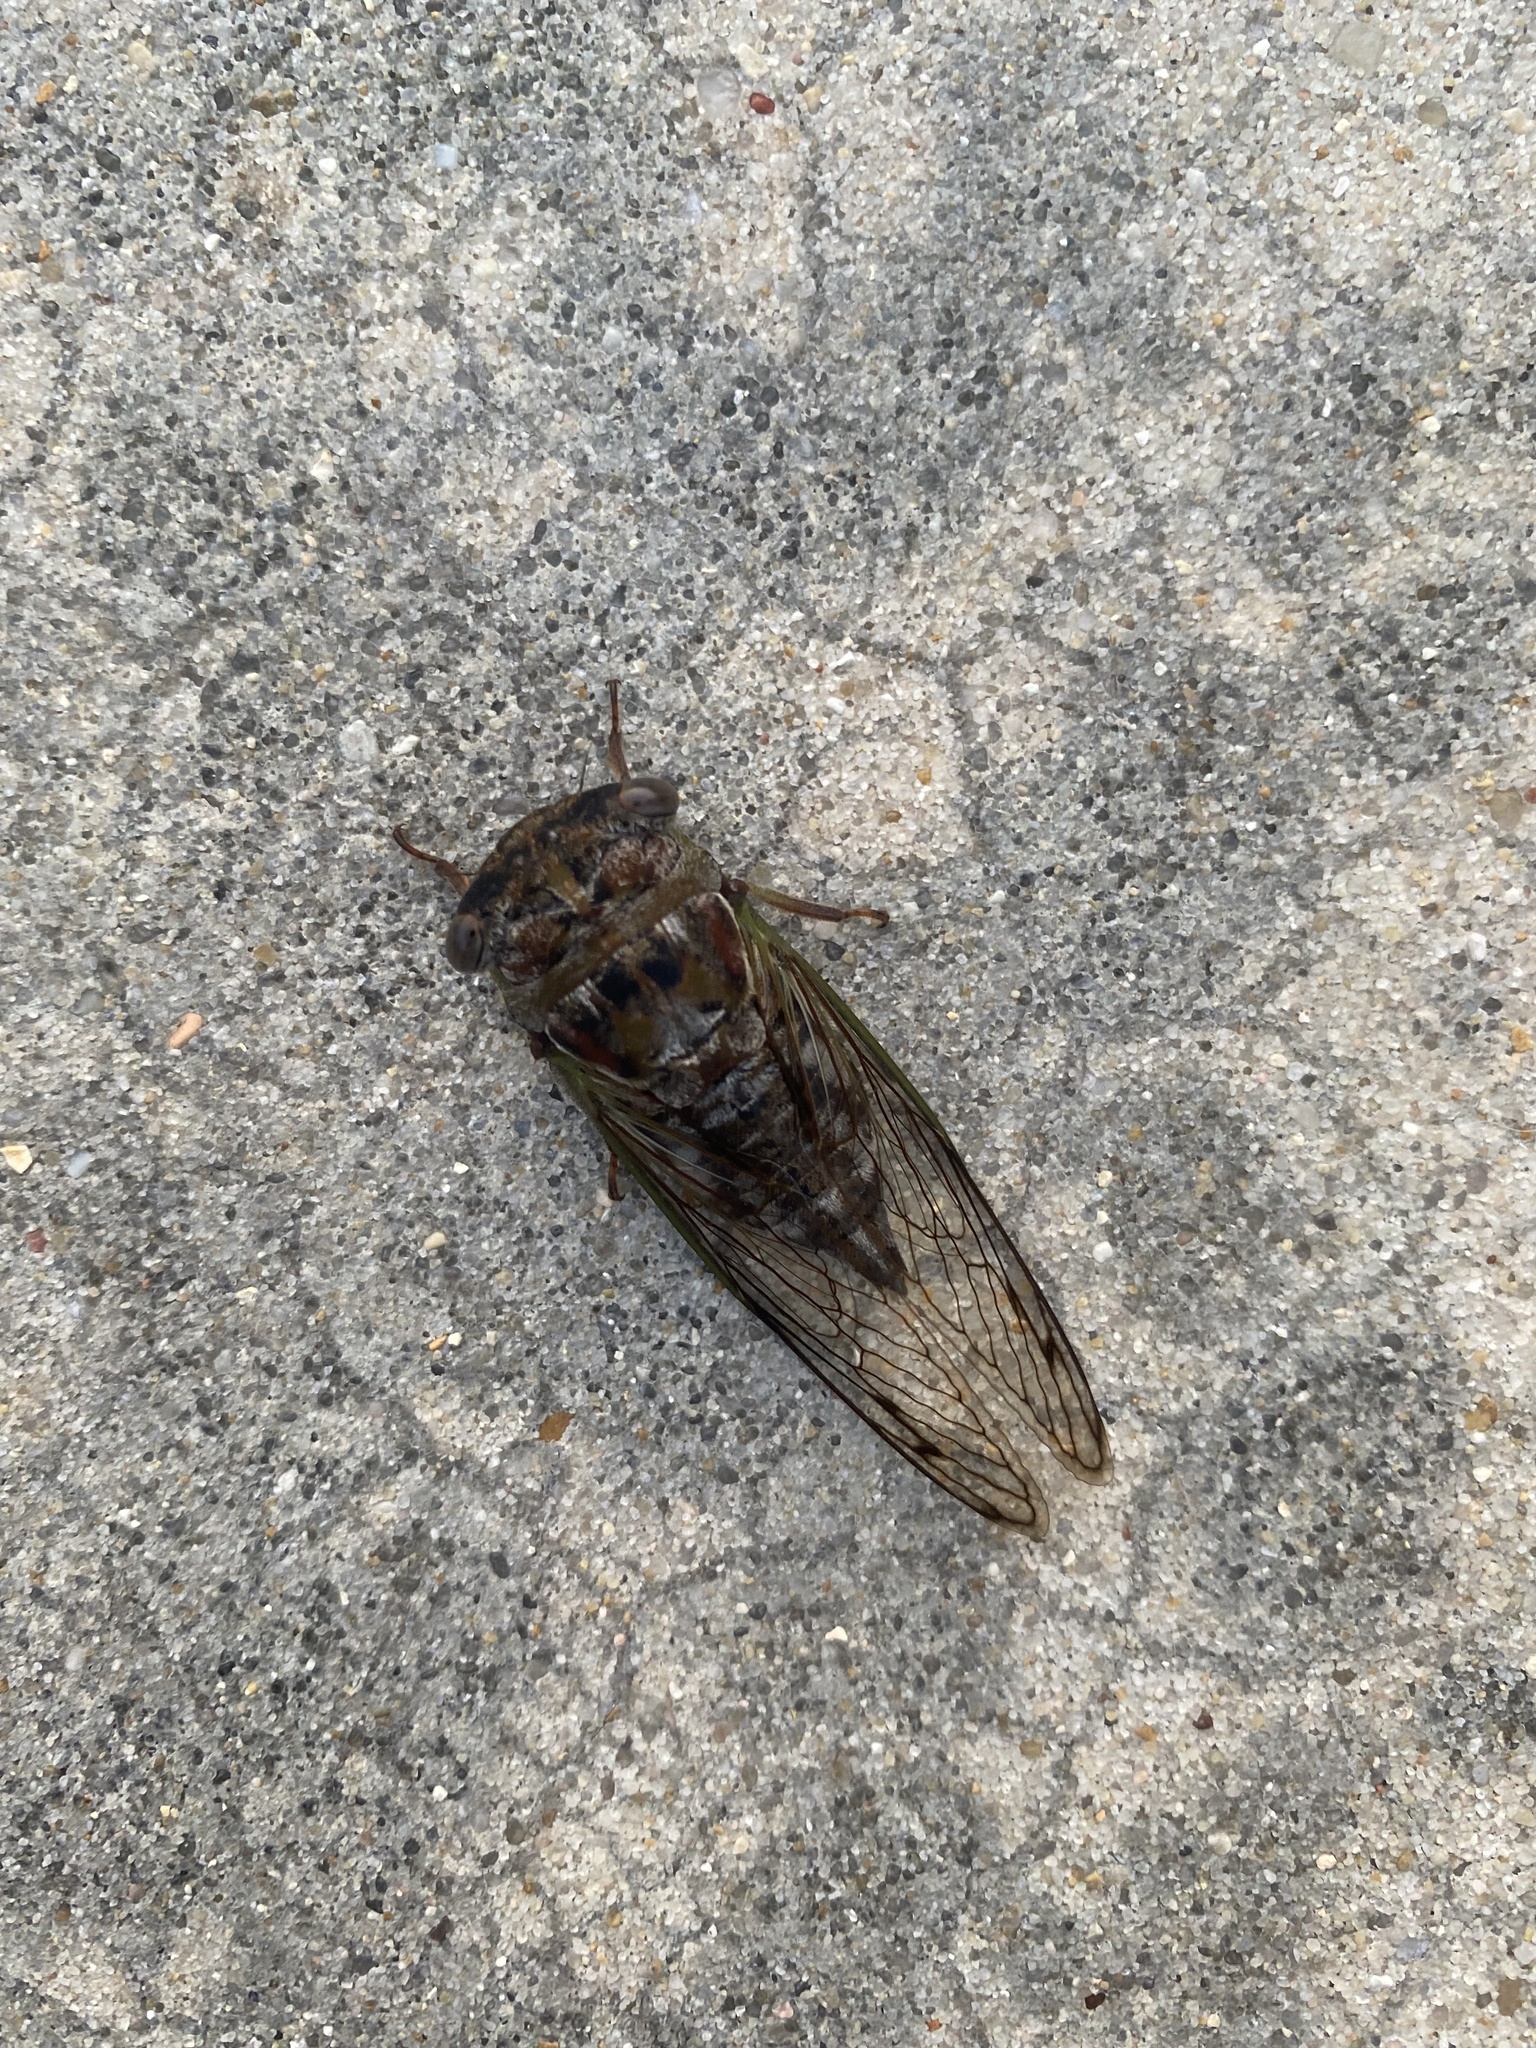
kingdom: Animalia
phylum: Arthropoda
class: Insecta
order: Hemiptera
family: Cicadidae
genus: Neotibicen
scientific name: Neotibicen davisi
